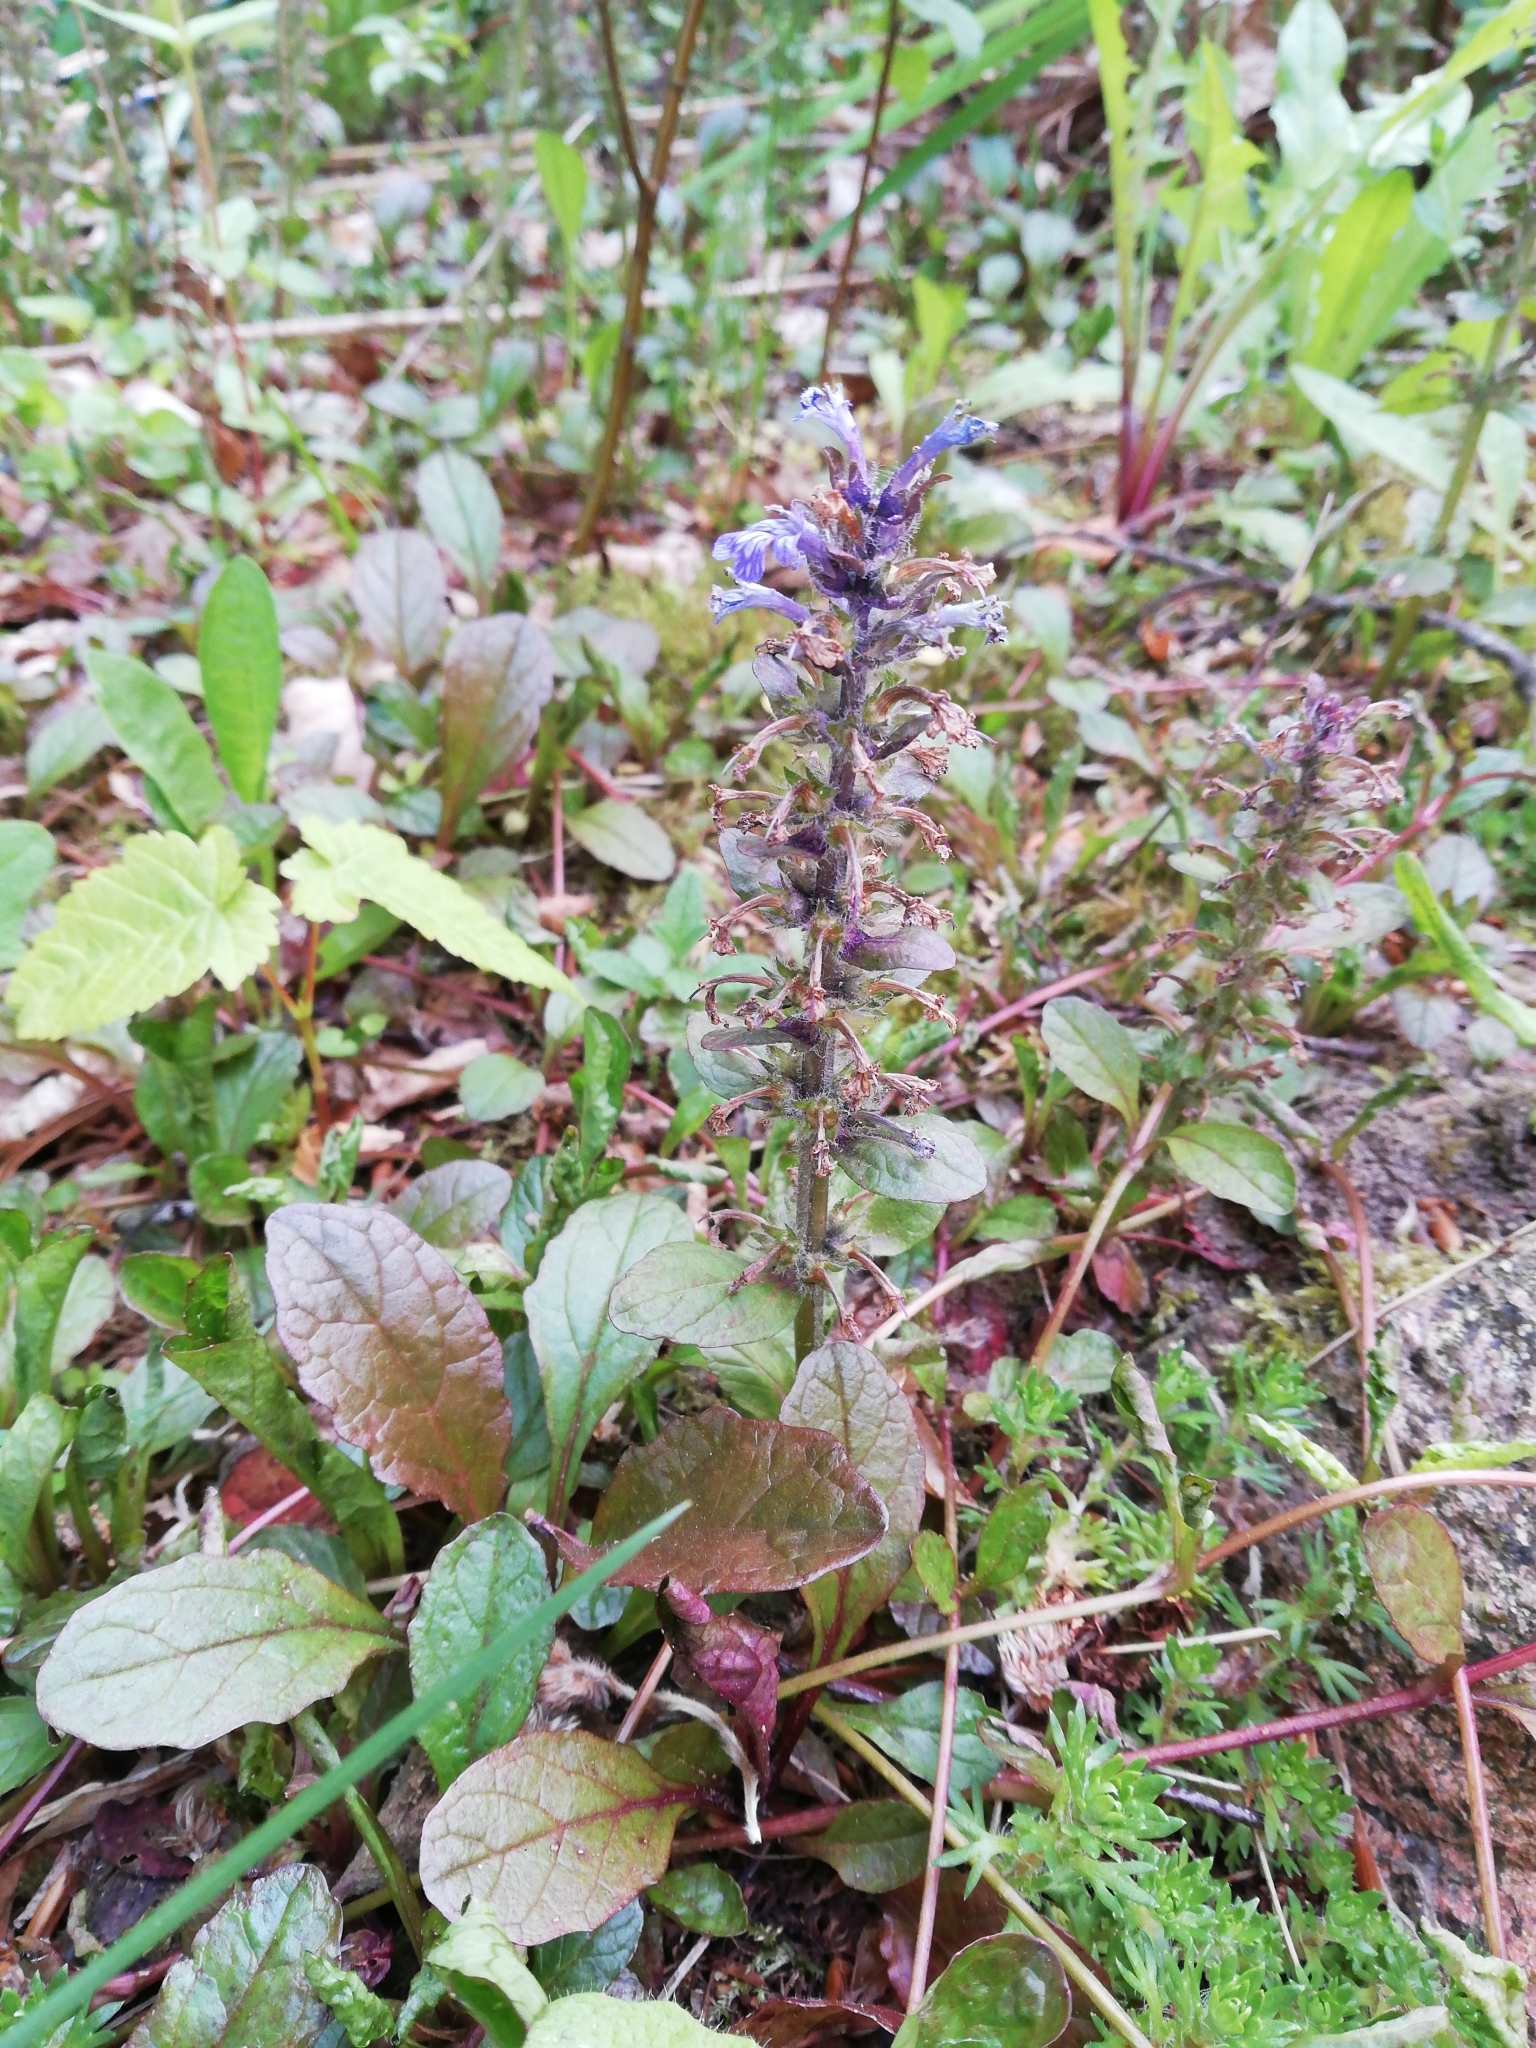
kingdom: Plantae
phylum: Tracheophyta
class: Magnoliopsida
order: Lamiales
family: Lamiaceae
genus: Ajuga
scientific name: Ajuga reptans
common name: Bugle
